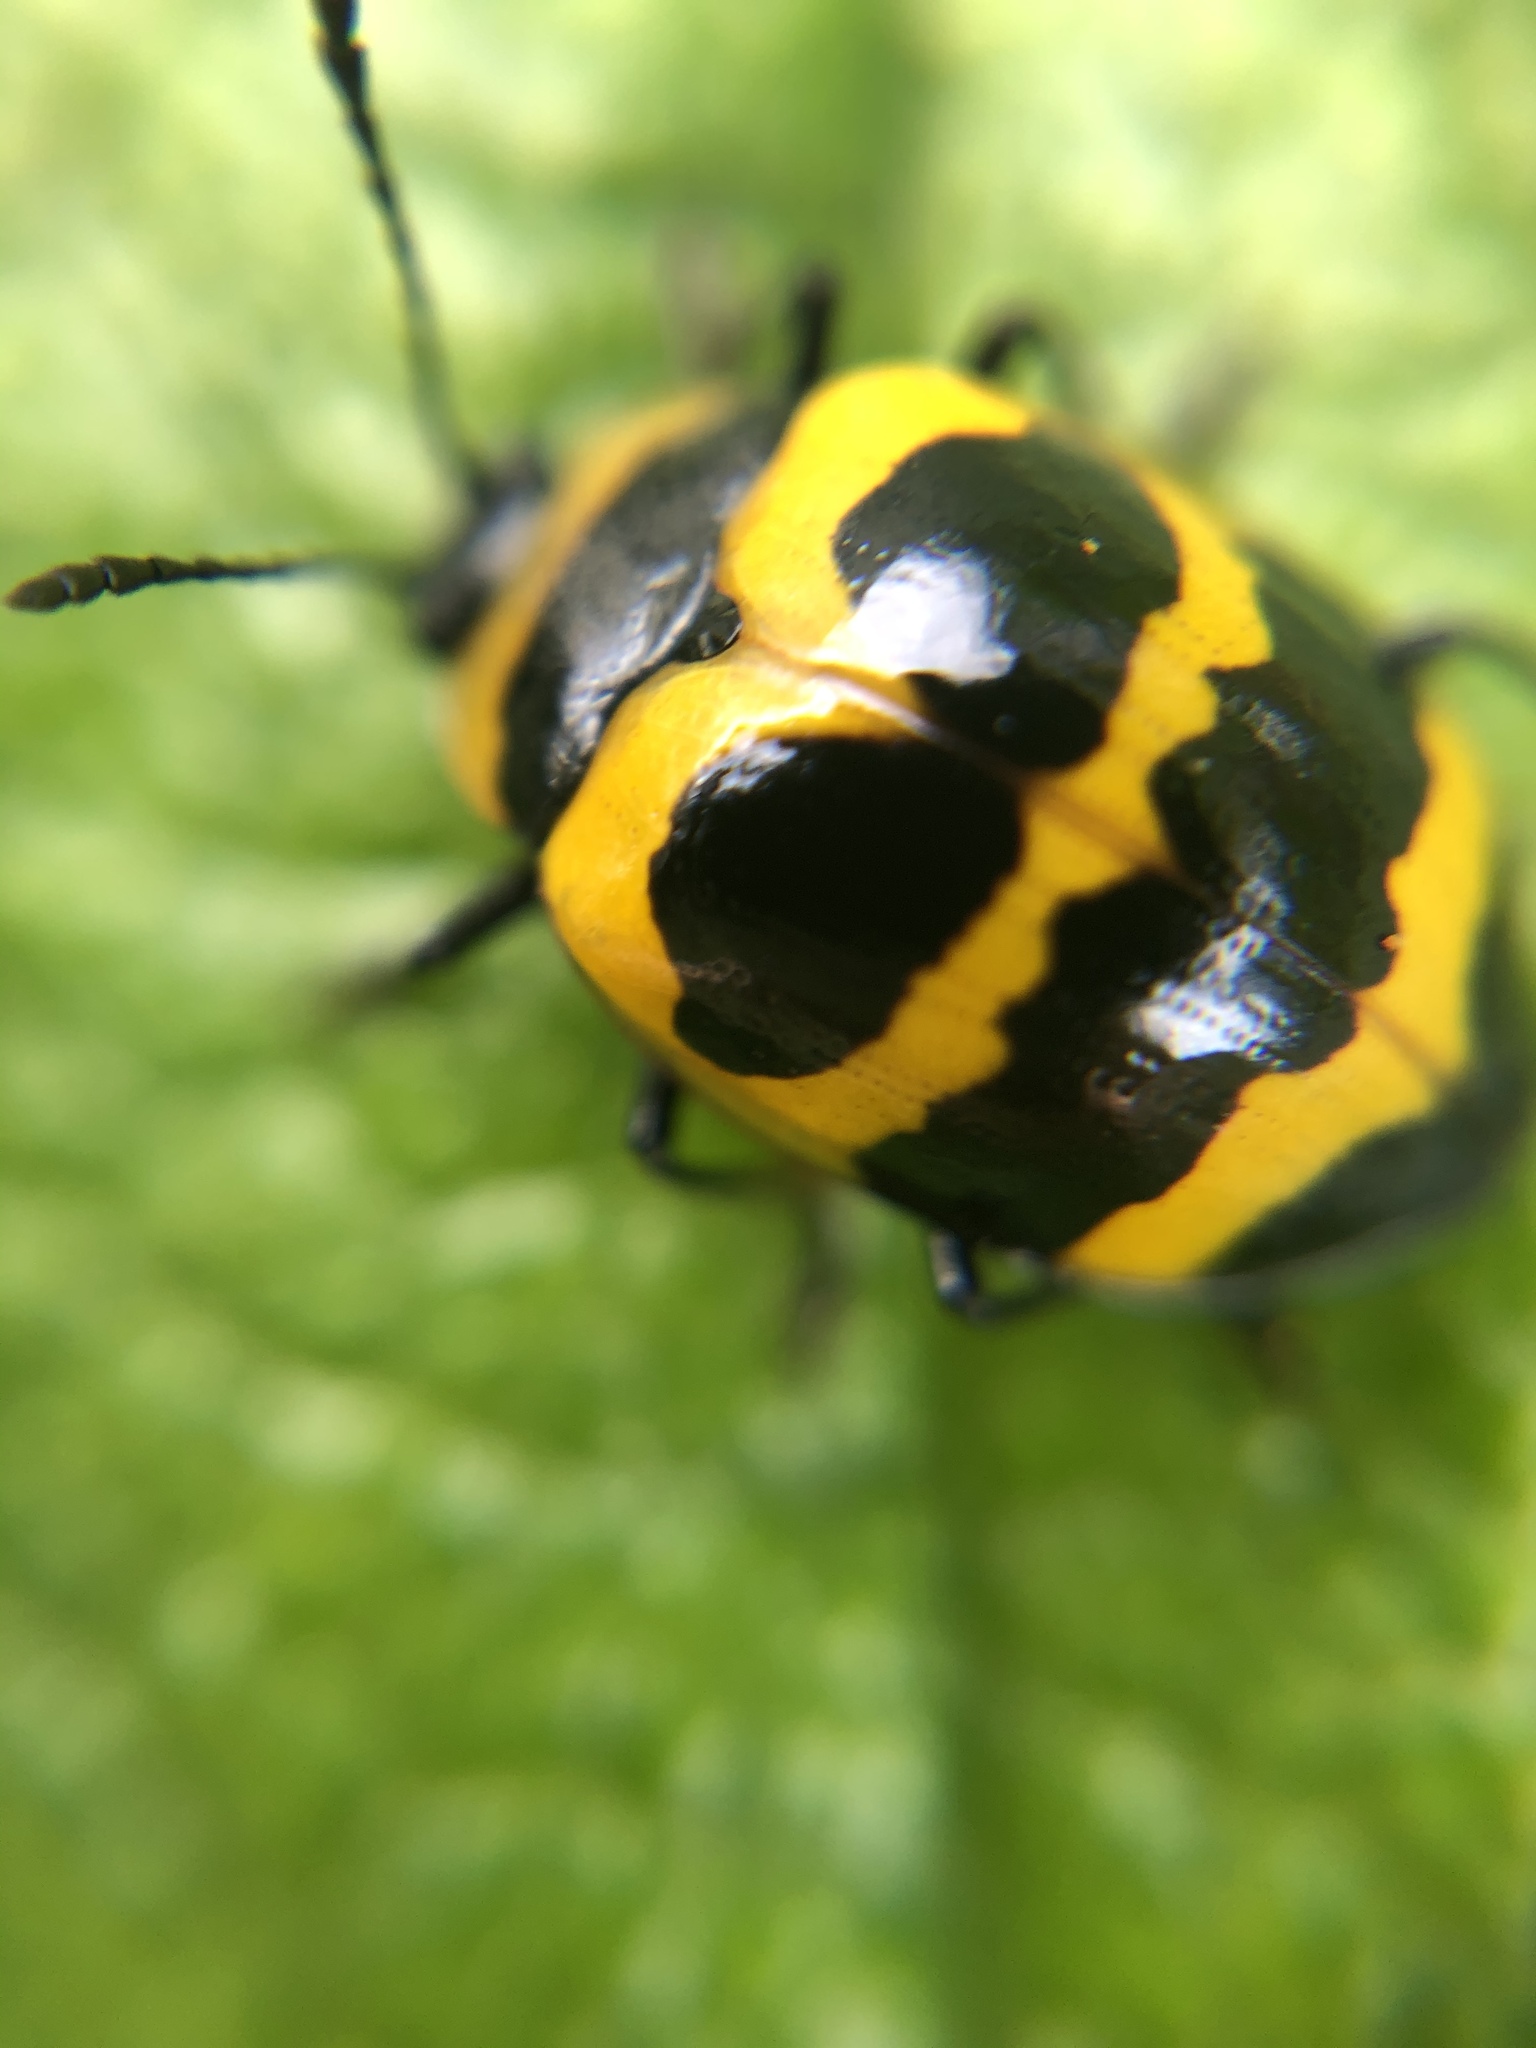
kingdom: Animalia
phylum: Arthropoda
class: Insecta
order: Coleoptera
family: Erotylidae
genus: Oligocorynus
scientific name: Oligocorynus zebra
